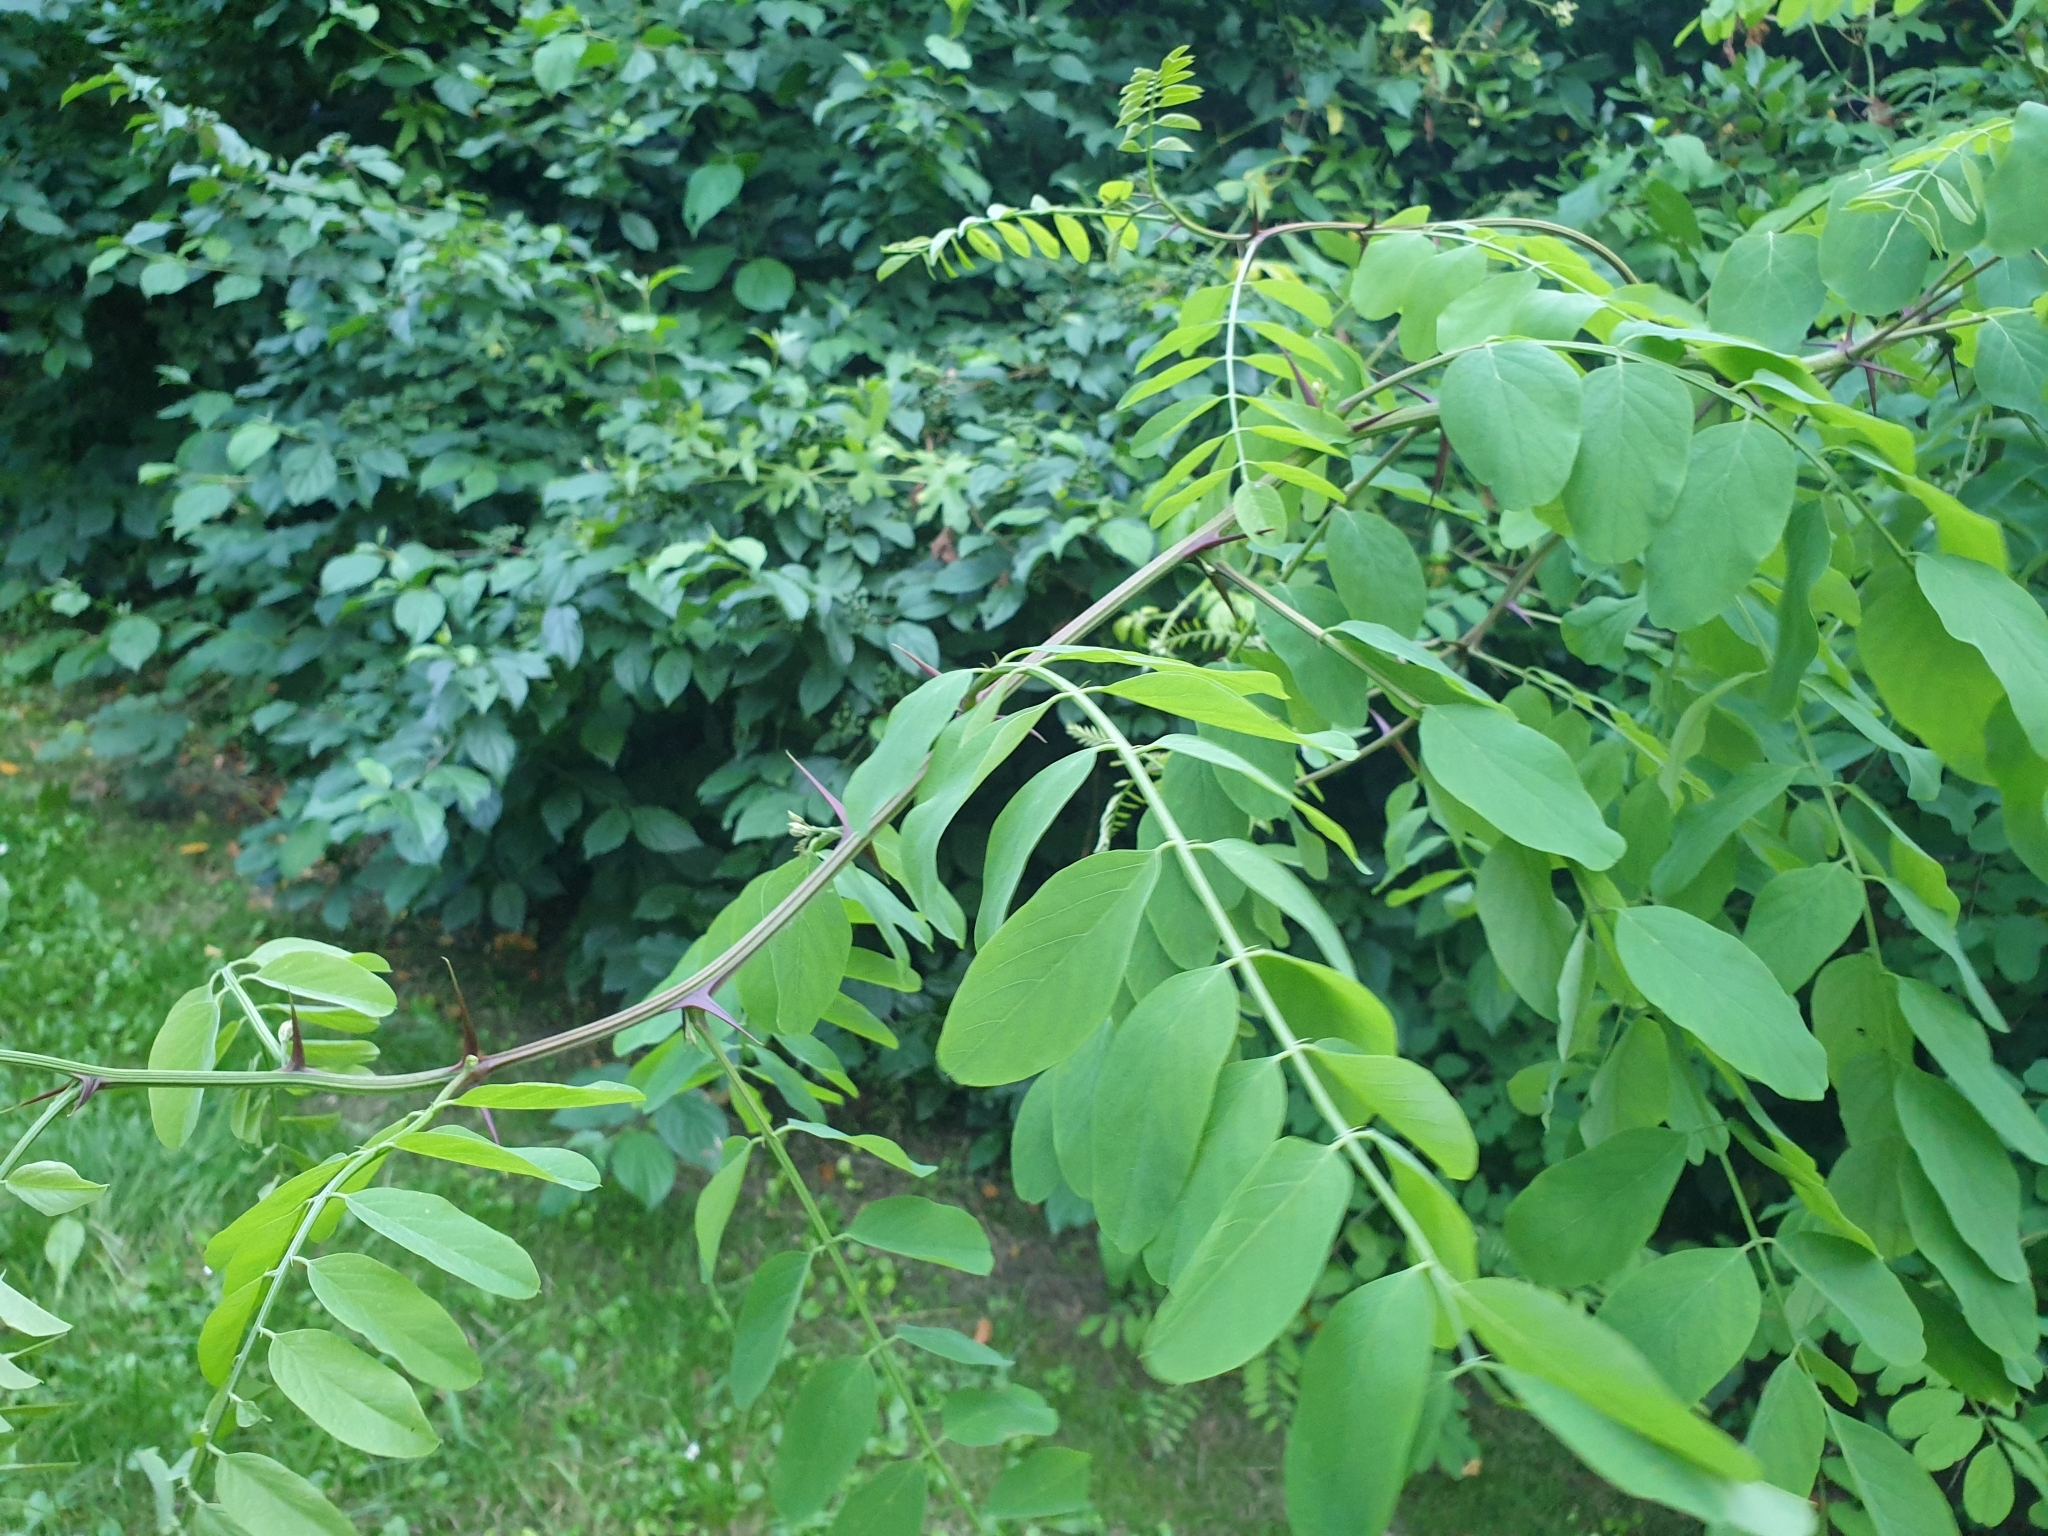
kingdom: Plantae
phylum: Tracheophyta
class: Magnoliopsida
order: Fabales
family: Fabaceae
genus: Robinia
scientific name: Robinia pseudoacacia
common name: Black locust
